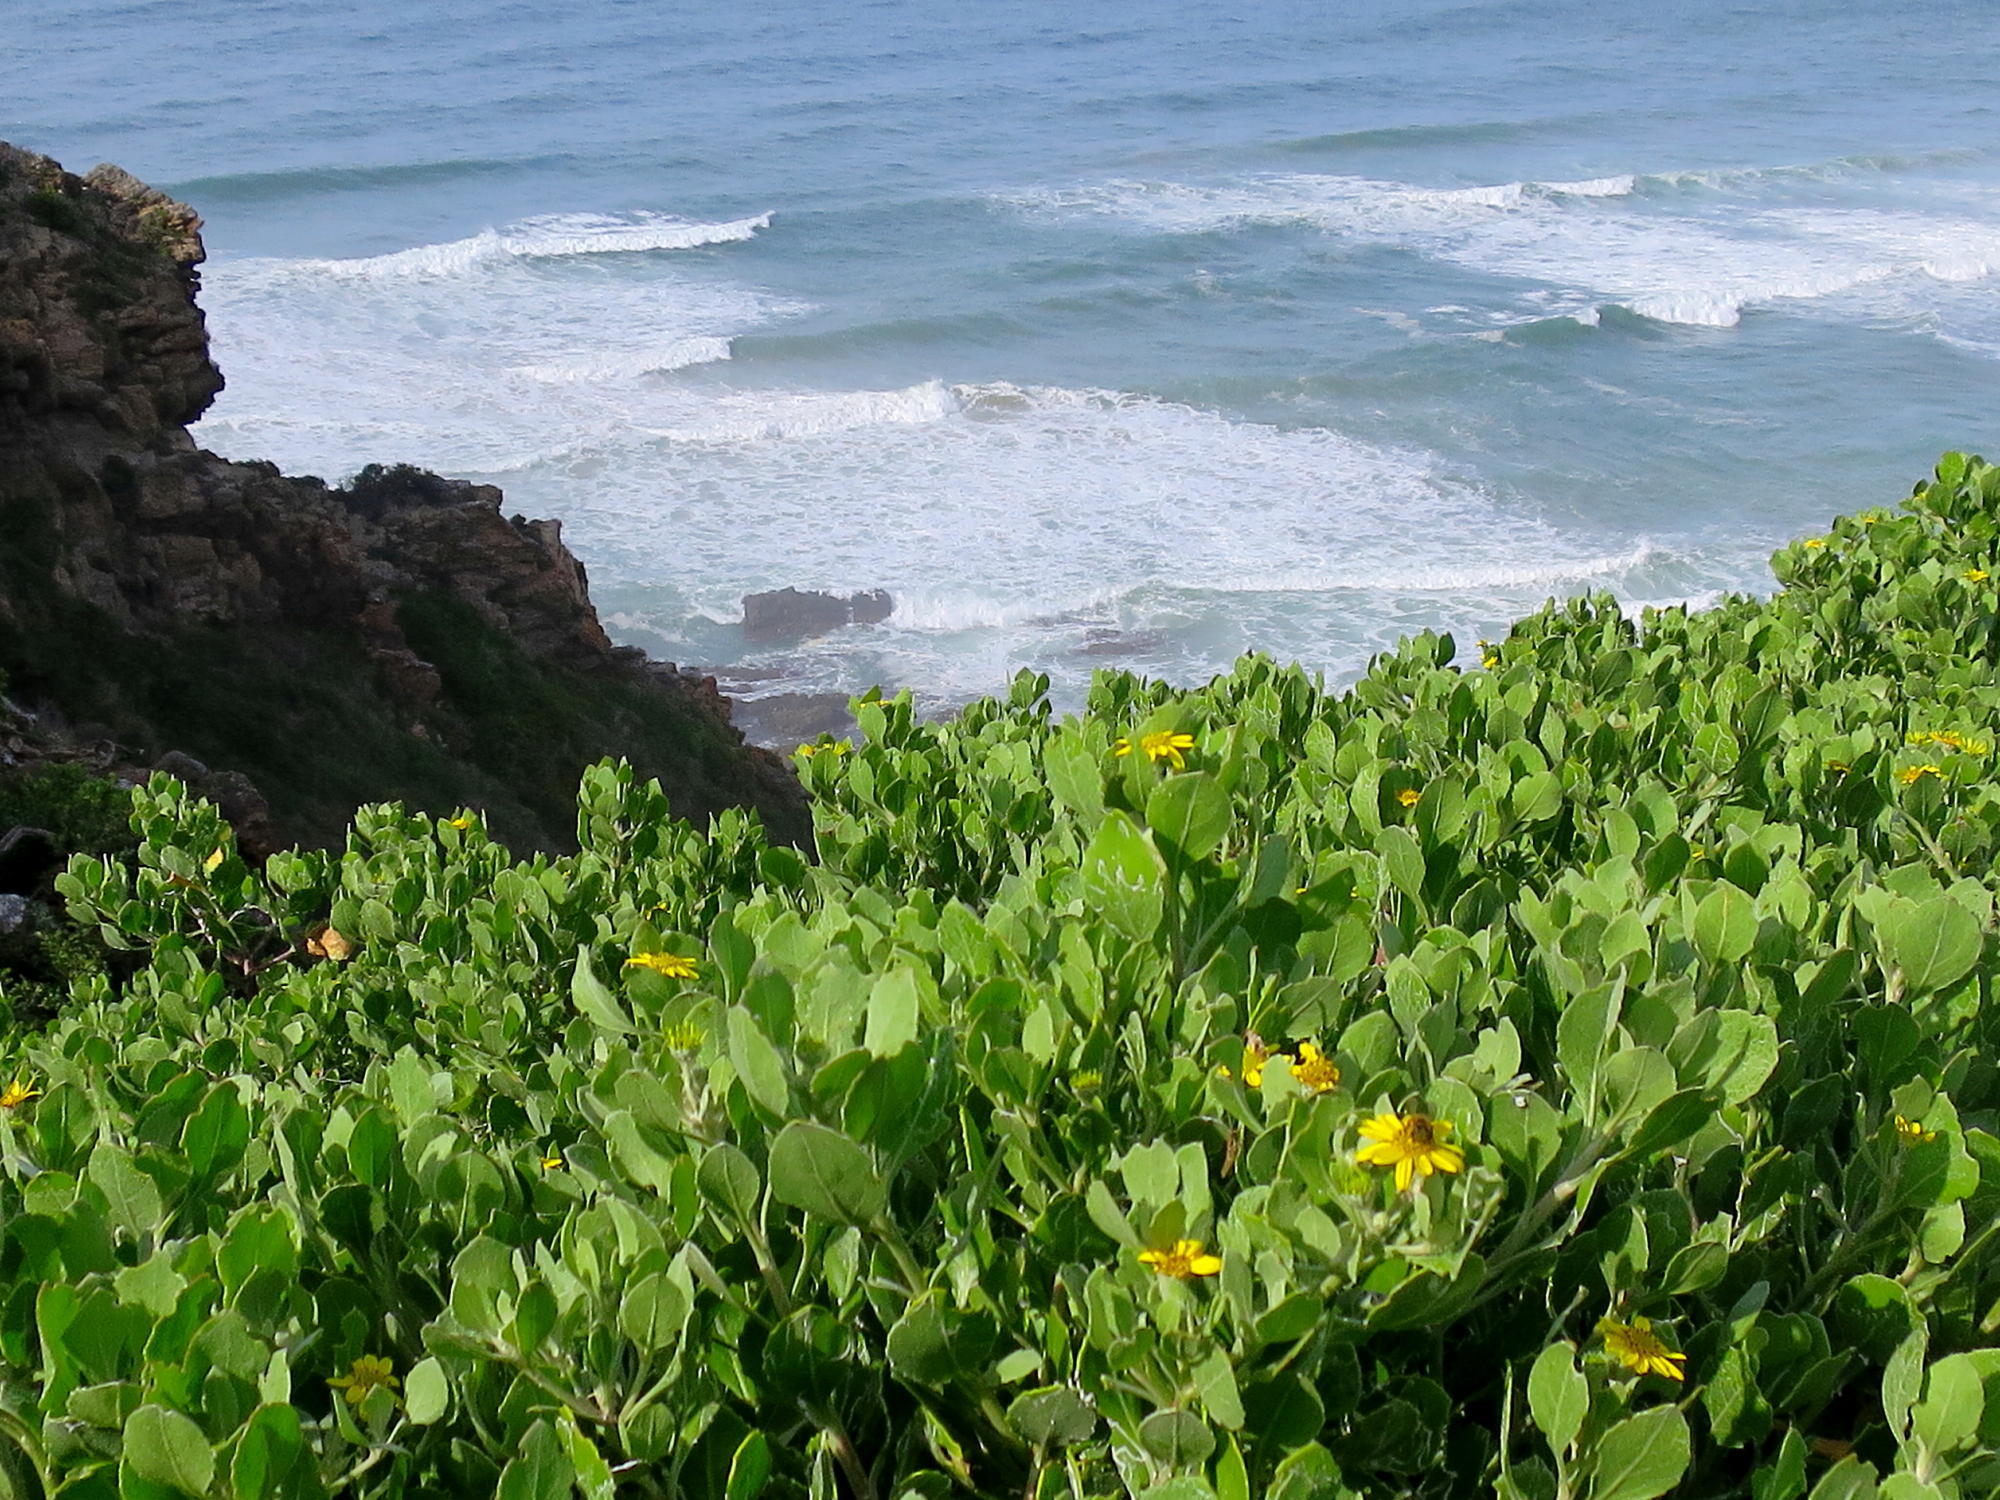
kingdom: Plantae
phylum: Tracheophyta
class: Magnoliopsida
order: Asterales
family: Asteraceae
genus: Osteospermum
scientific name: Osteospermum moniliferum
